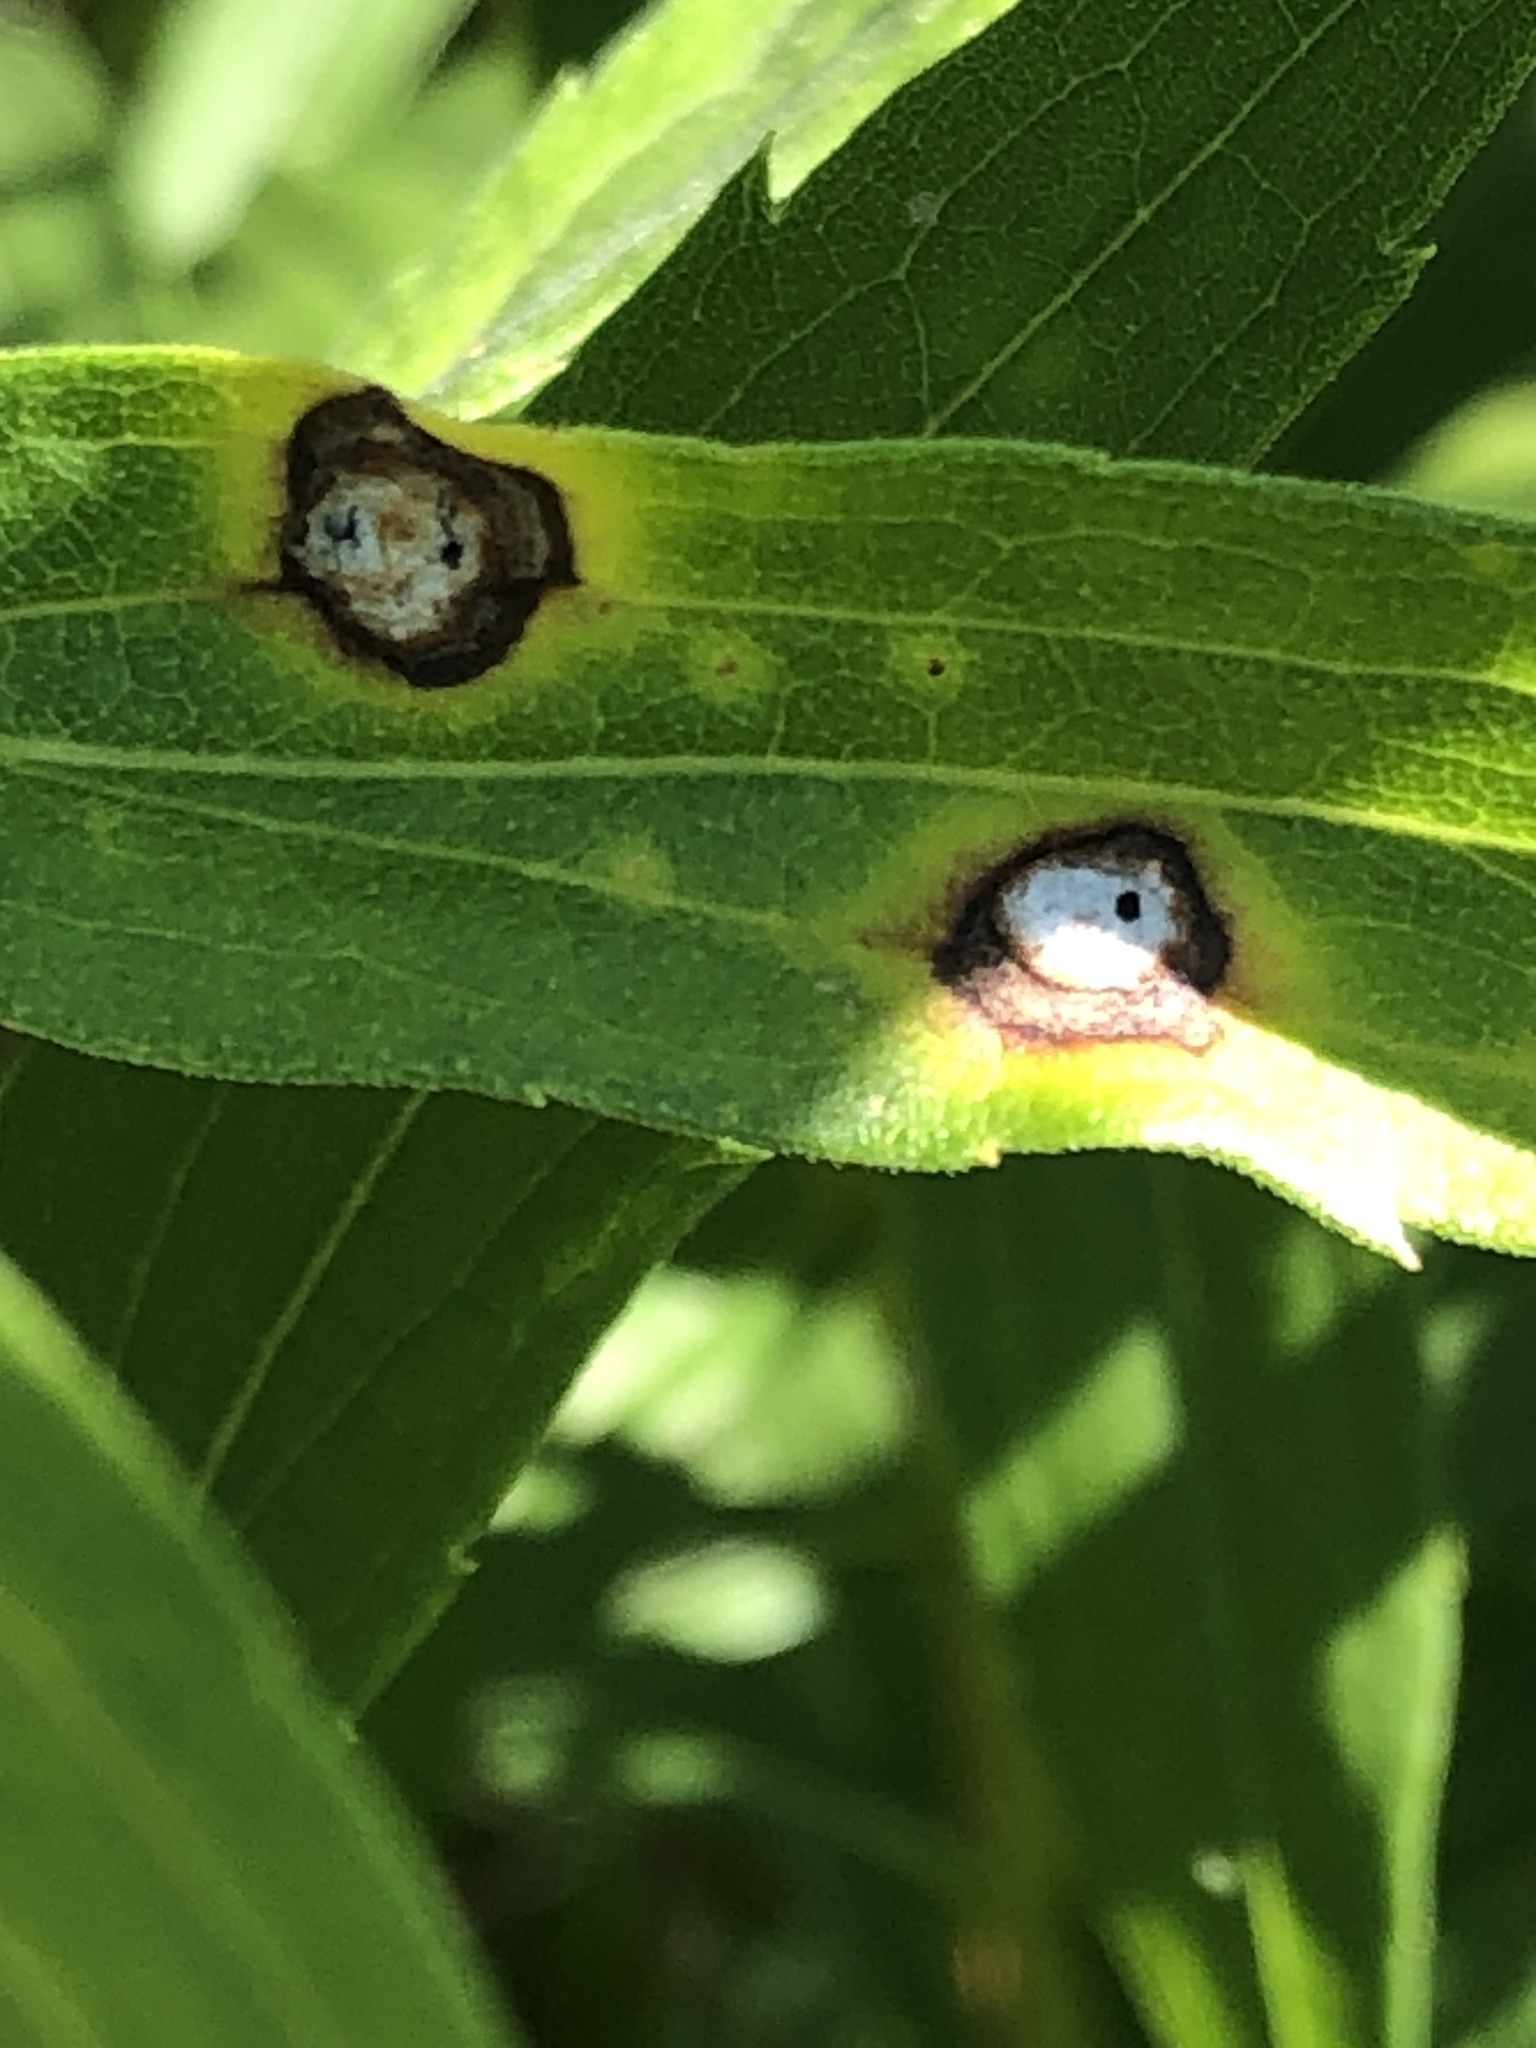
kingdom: Animalia
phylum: Arthropoda
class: Insecta
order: Diptera
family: Cecidomyiidae
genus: Asteromyia
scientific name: Asteromyia carbonifera
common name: Carbonifera goldenrod gall midge
